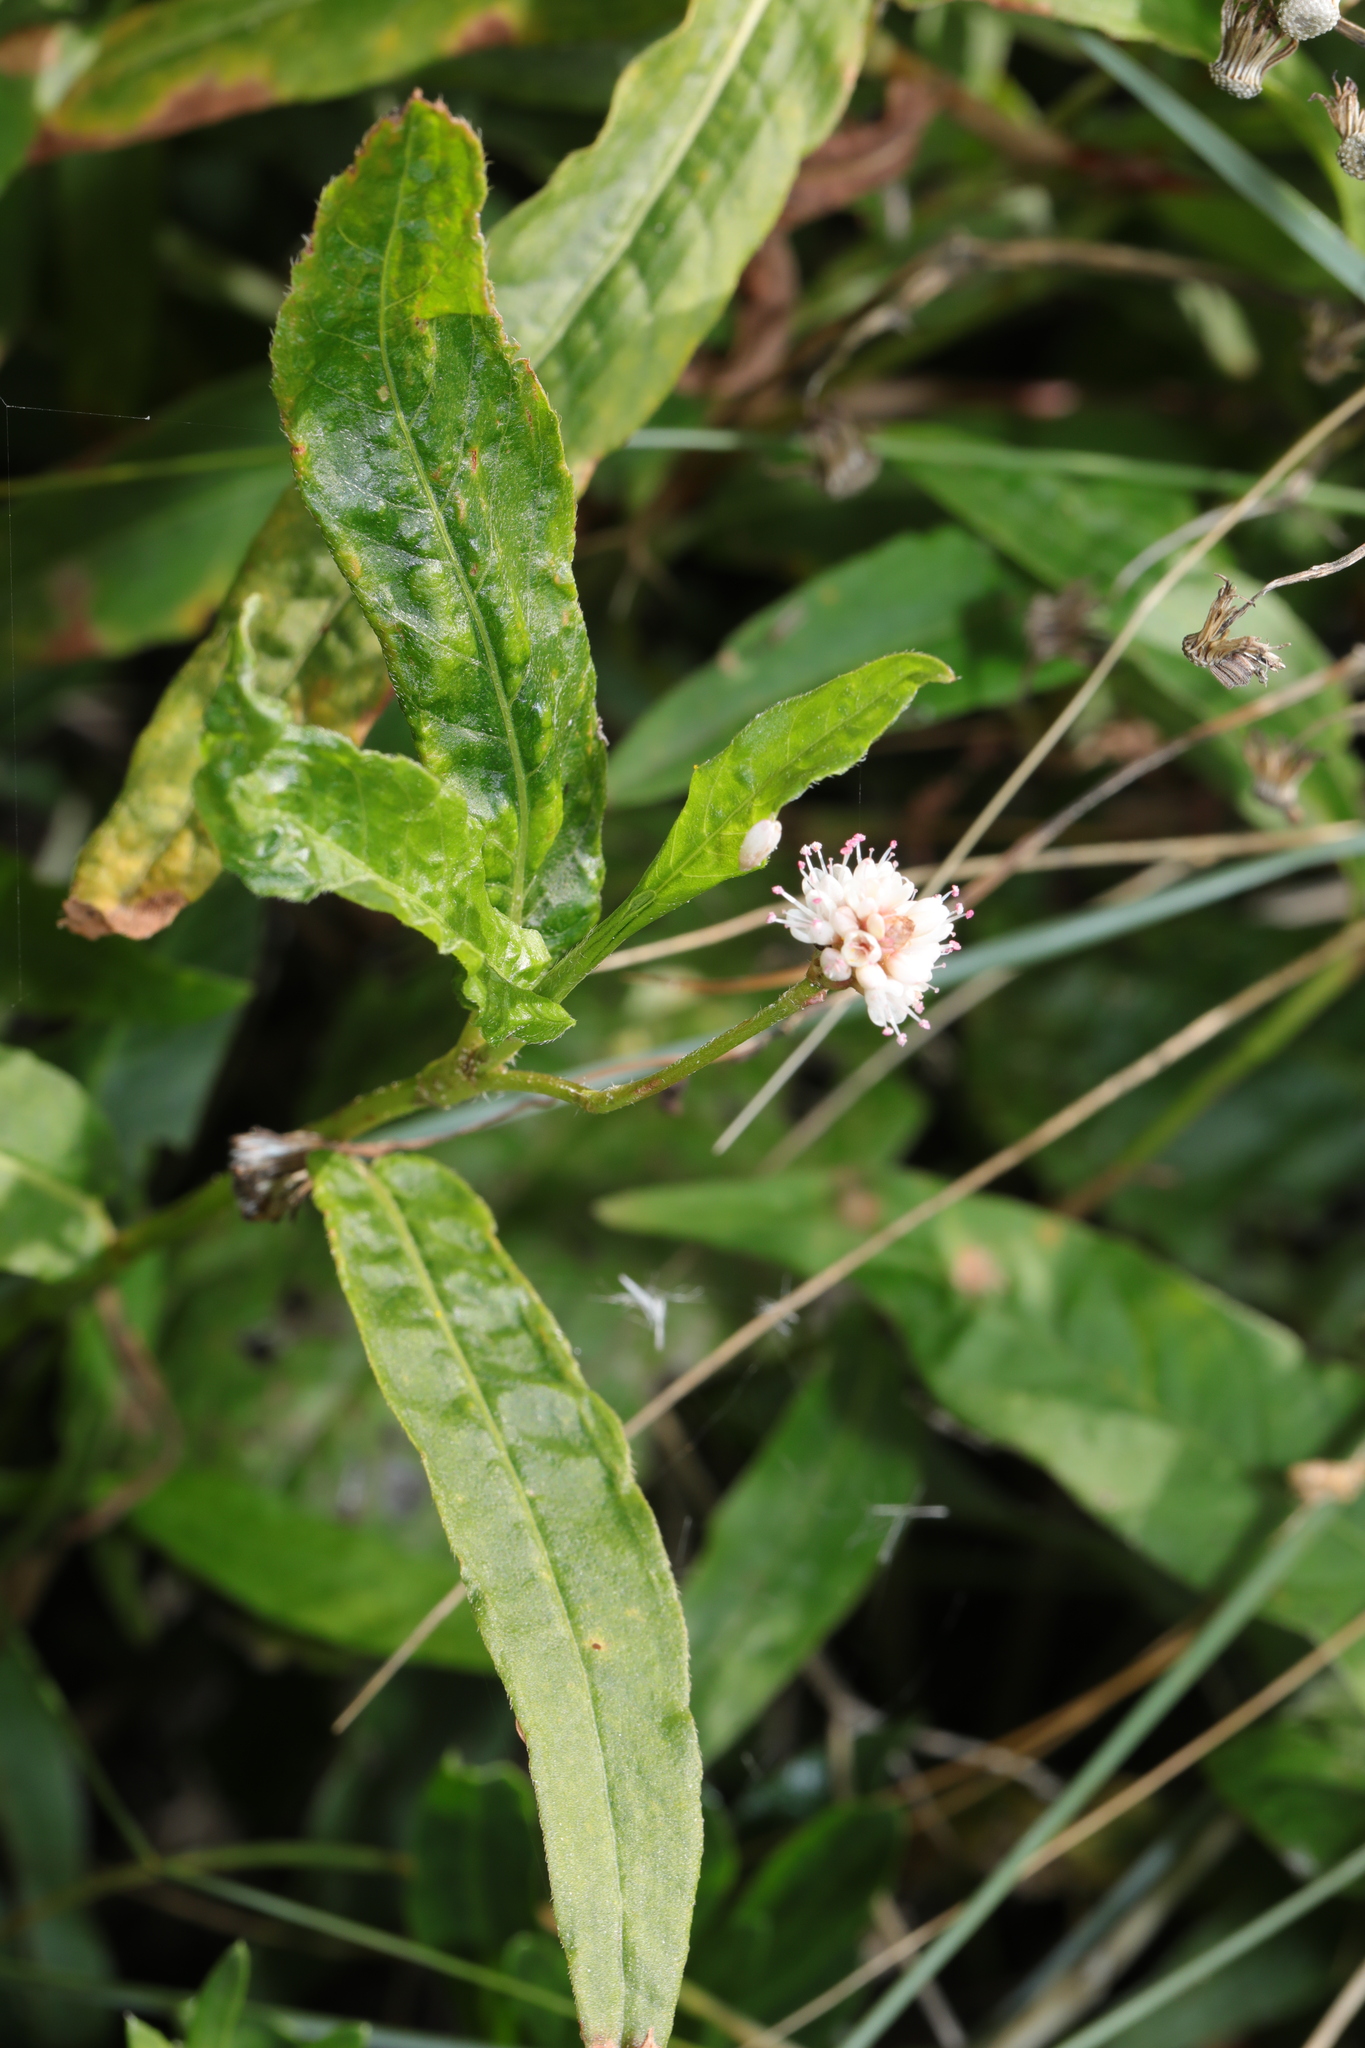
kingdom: Plantae
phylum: Tracheophyta
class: Magnoliopsida
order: Caryophyllales
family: Polygonaceae
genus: Persicaria
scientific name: Persicaria amphibia
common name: Amphibious bistort
